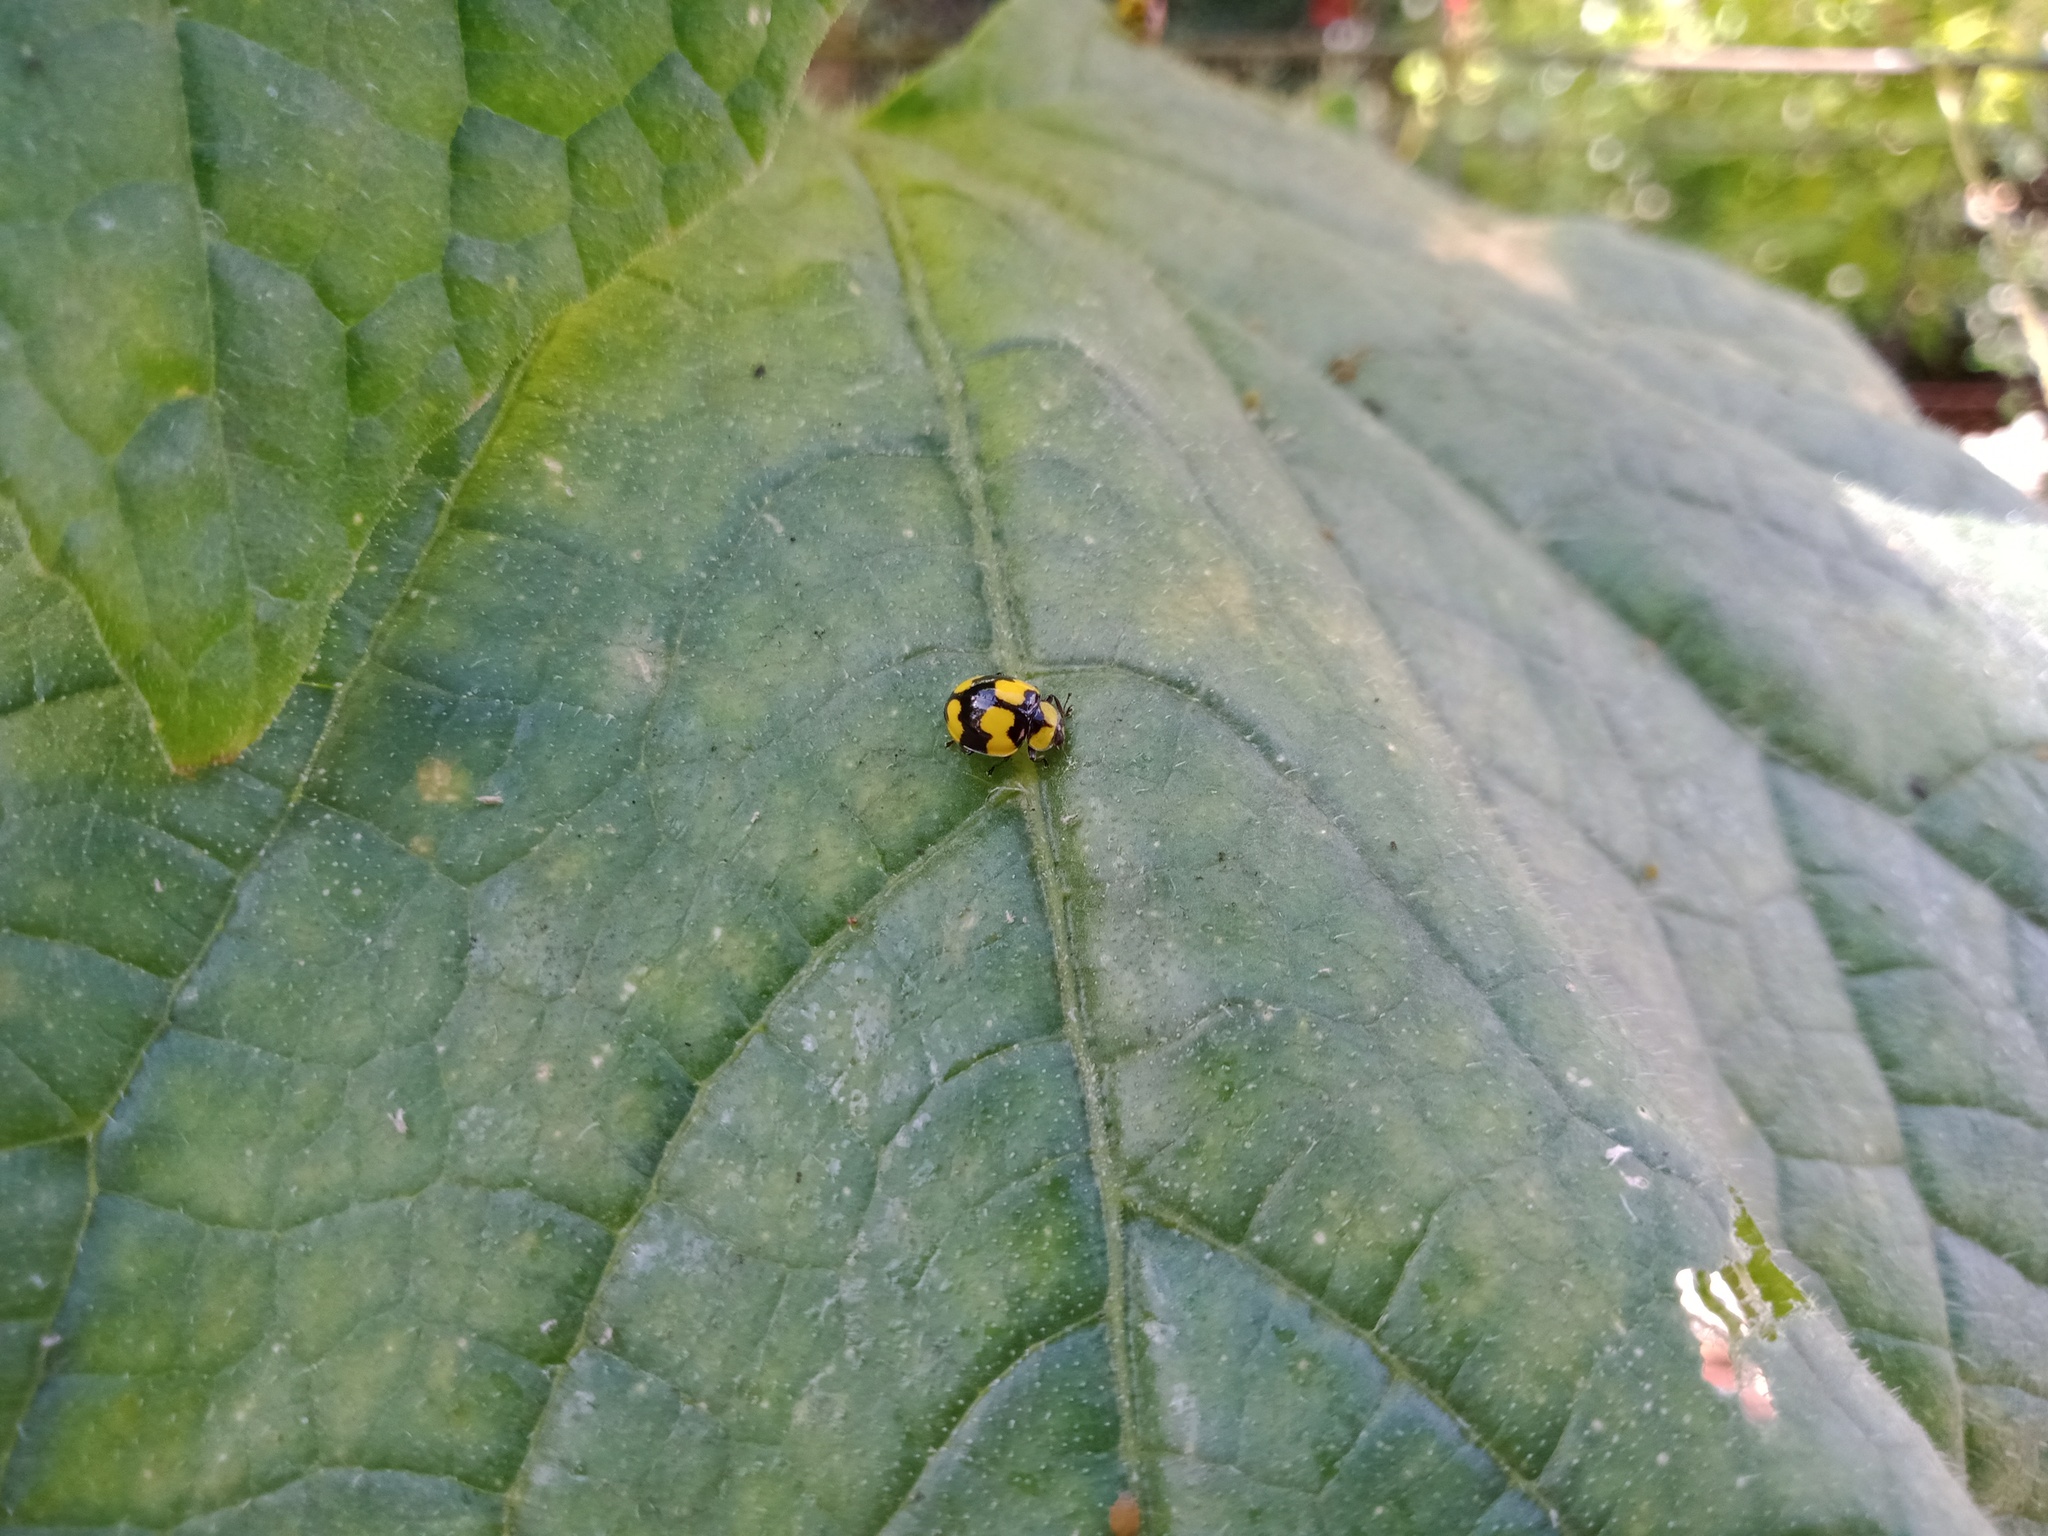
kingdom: Animalia
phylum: Arthropoda
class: Insecta
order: Coleoptera
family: Coccinellidae
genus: Illeis
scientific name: Illeis galbula
